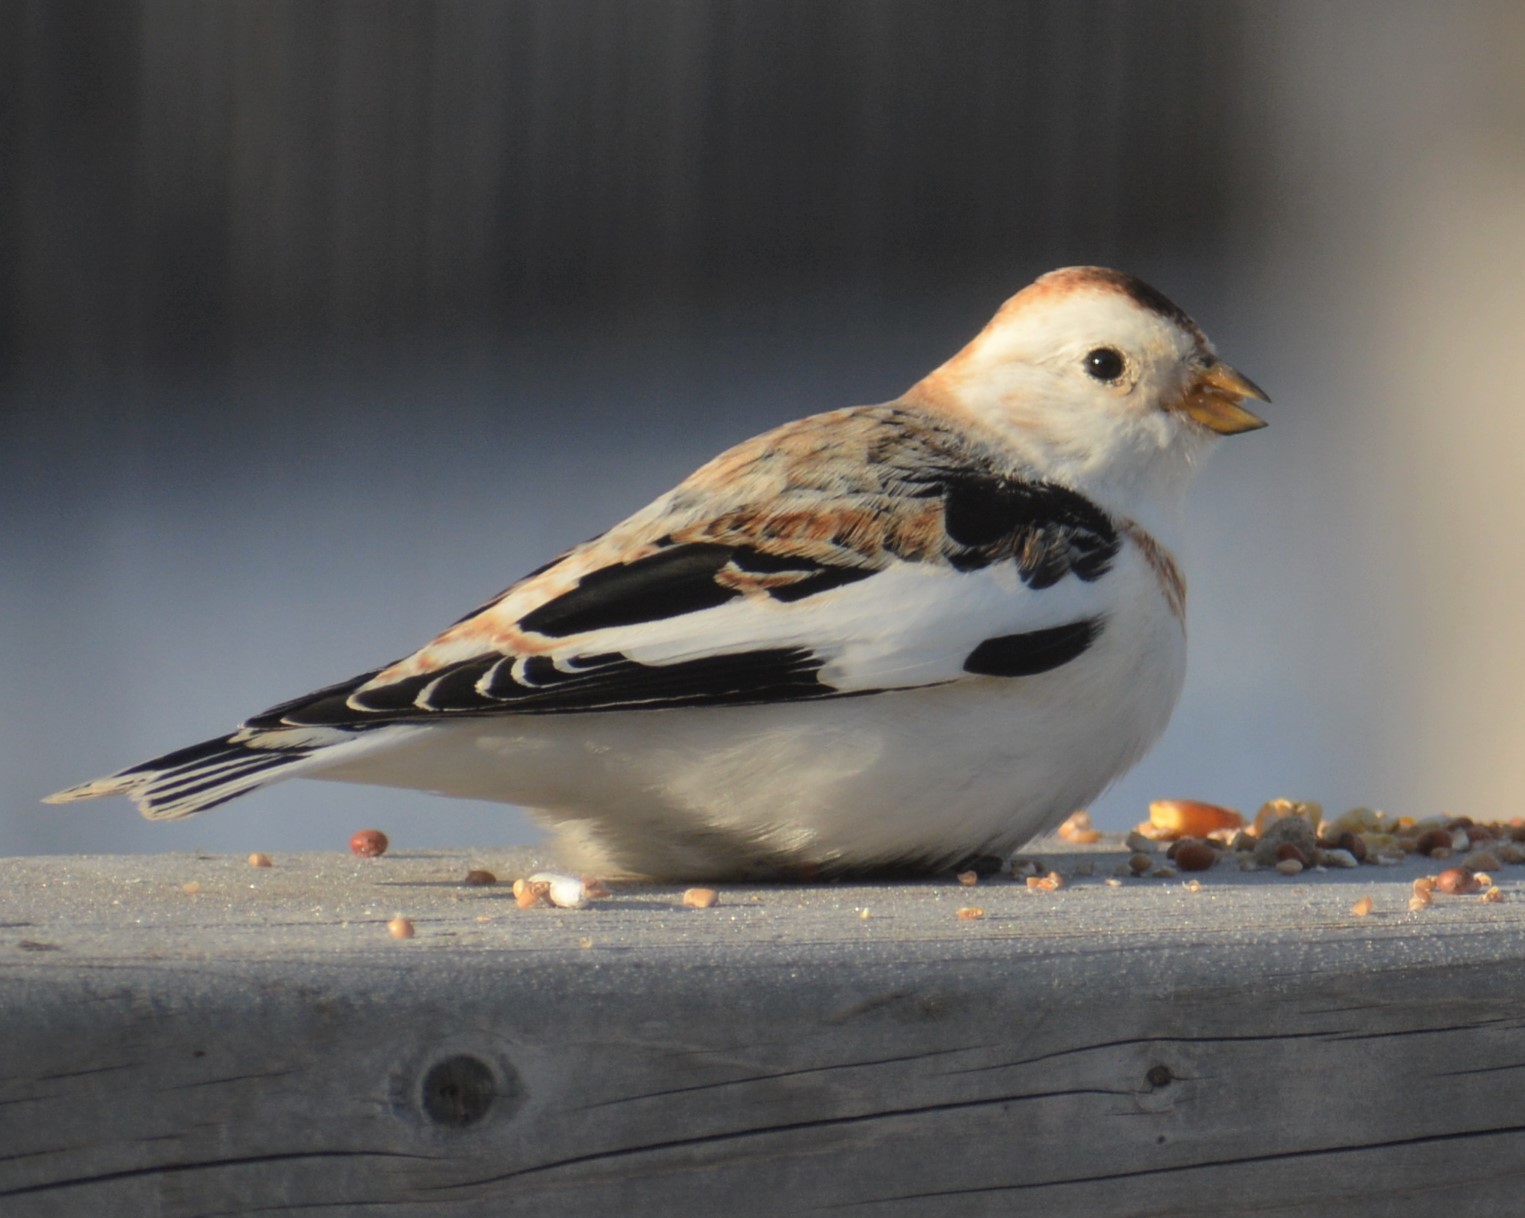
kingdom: Animalia
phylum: Chordata
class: Aves
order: Passeriformes
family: Calcariidae
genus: Plectrophenax
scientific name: Plectrophenax nivalis
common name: Snow bunting
